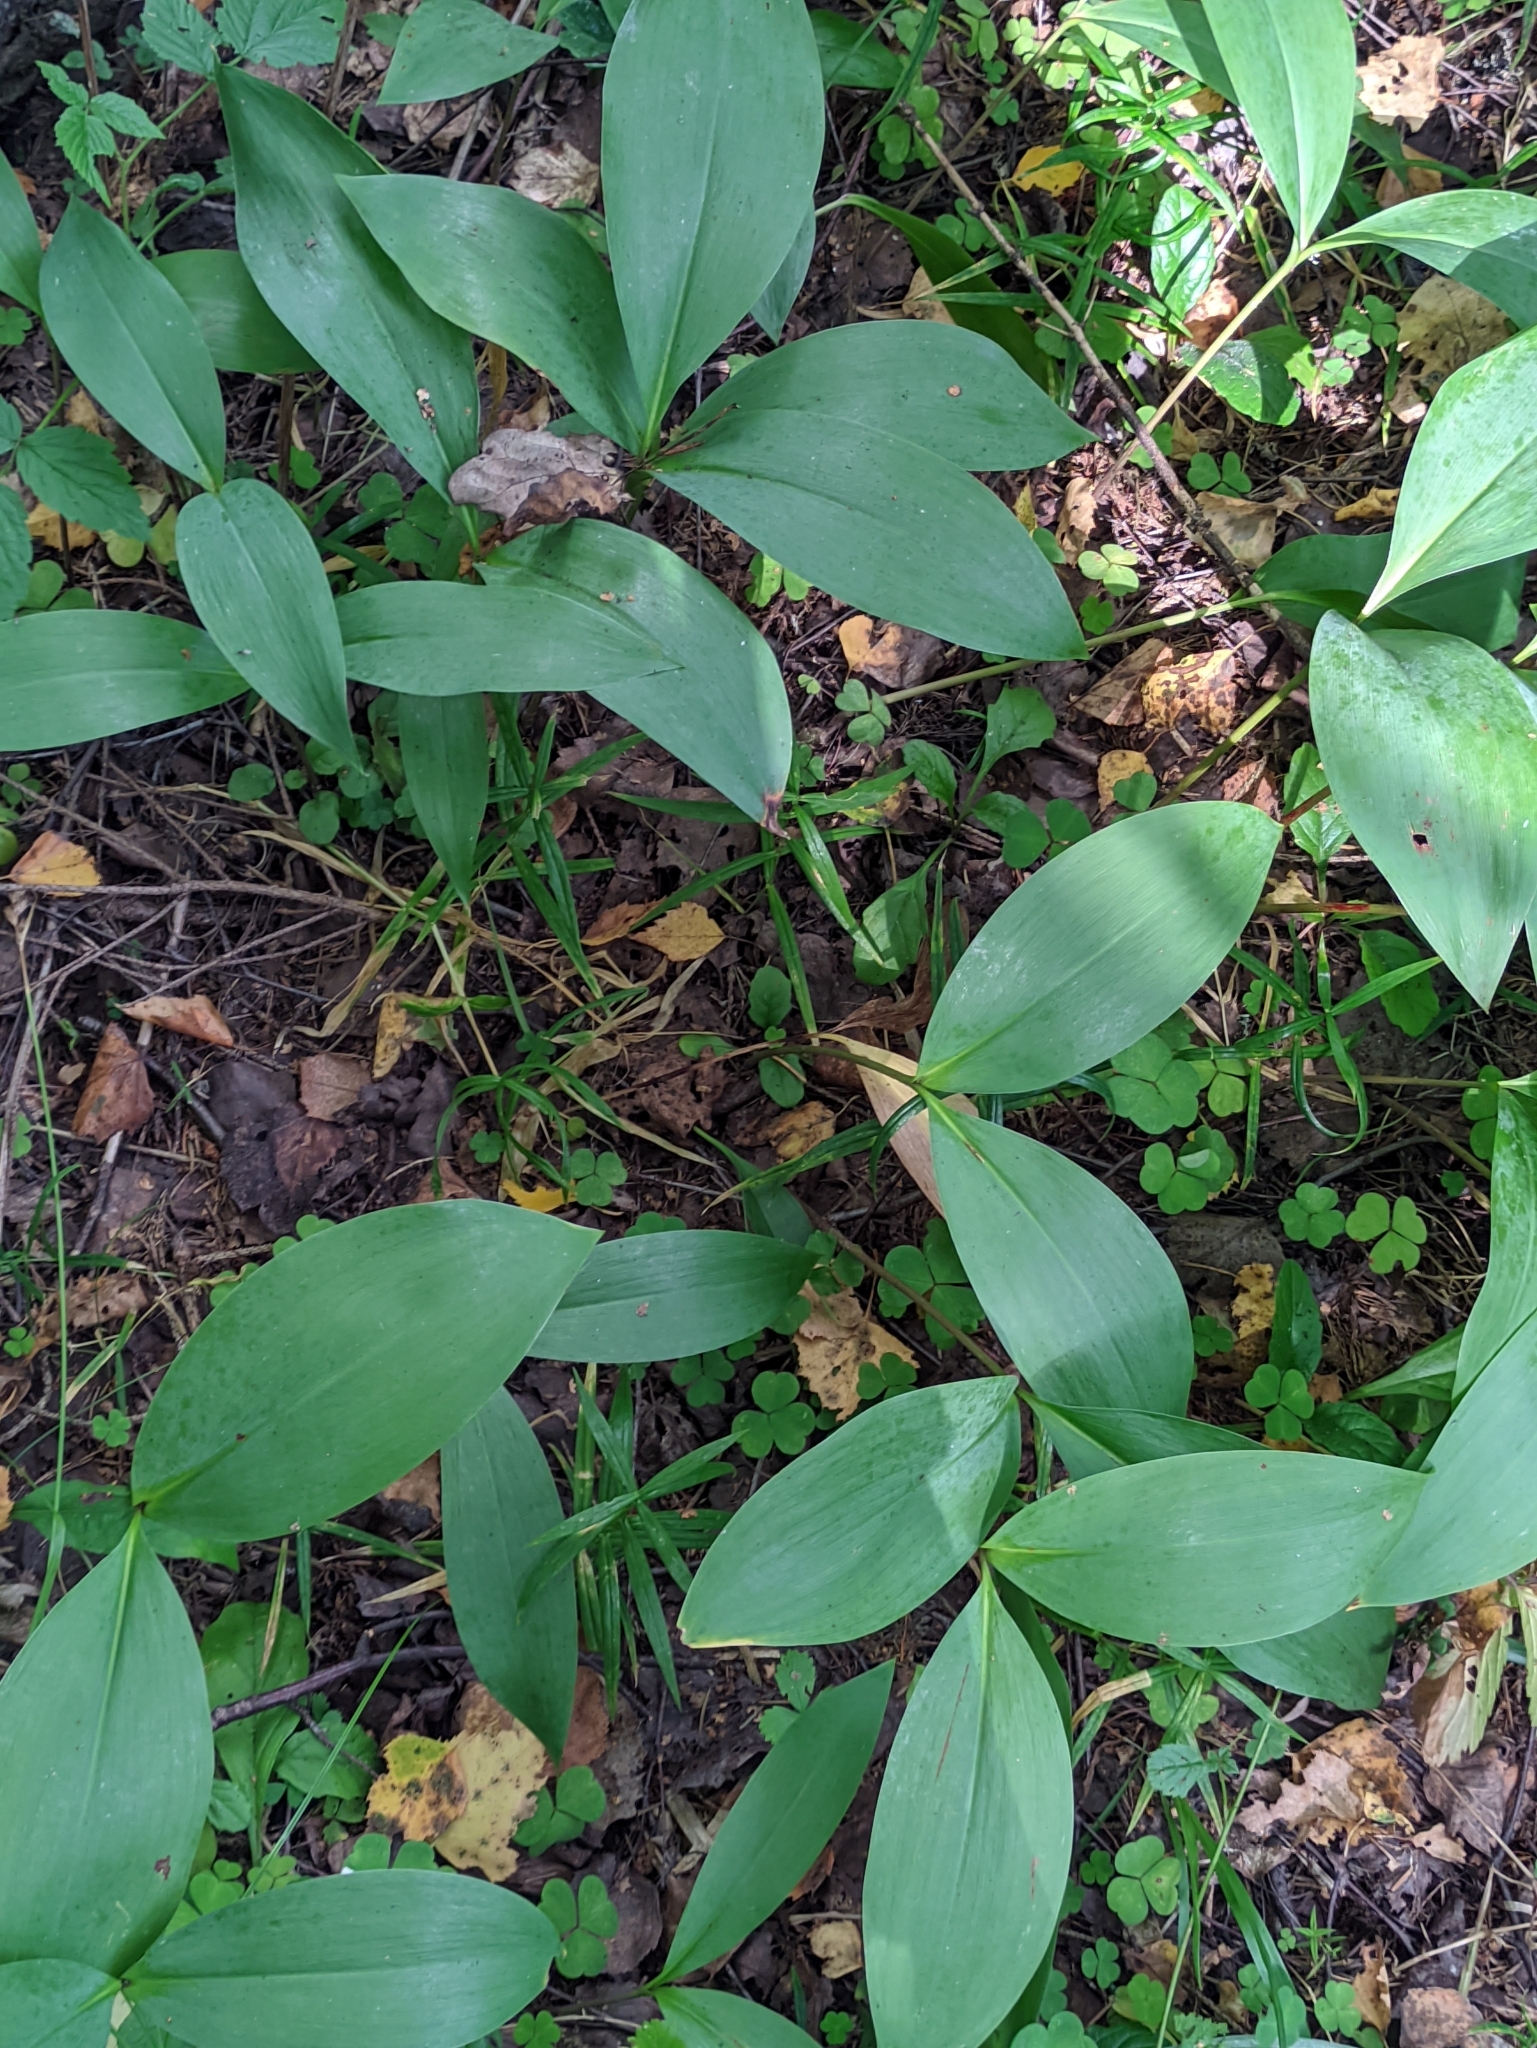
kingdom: Plantae
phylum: Tracheophyta
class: Liliopsida
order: Asparagales
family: Asparagaceae
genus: Convallaria
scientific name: Convallaria majalis
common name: Lily-of-the-valley
